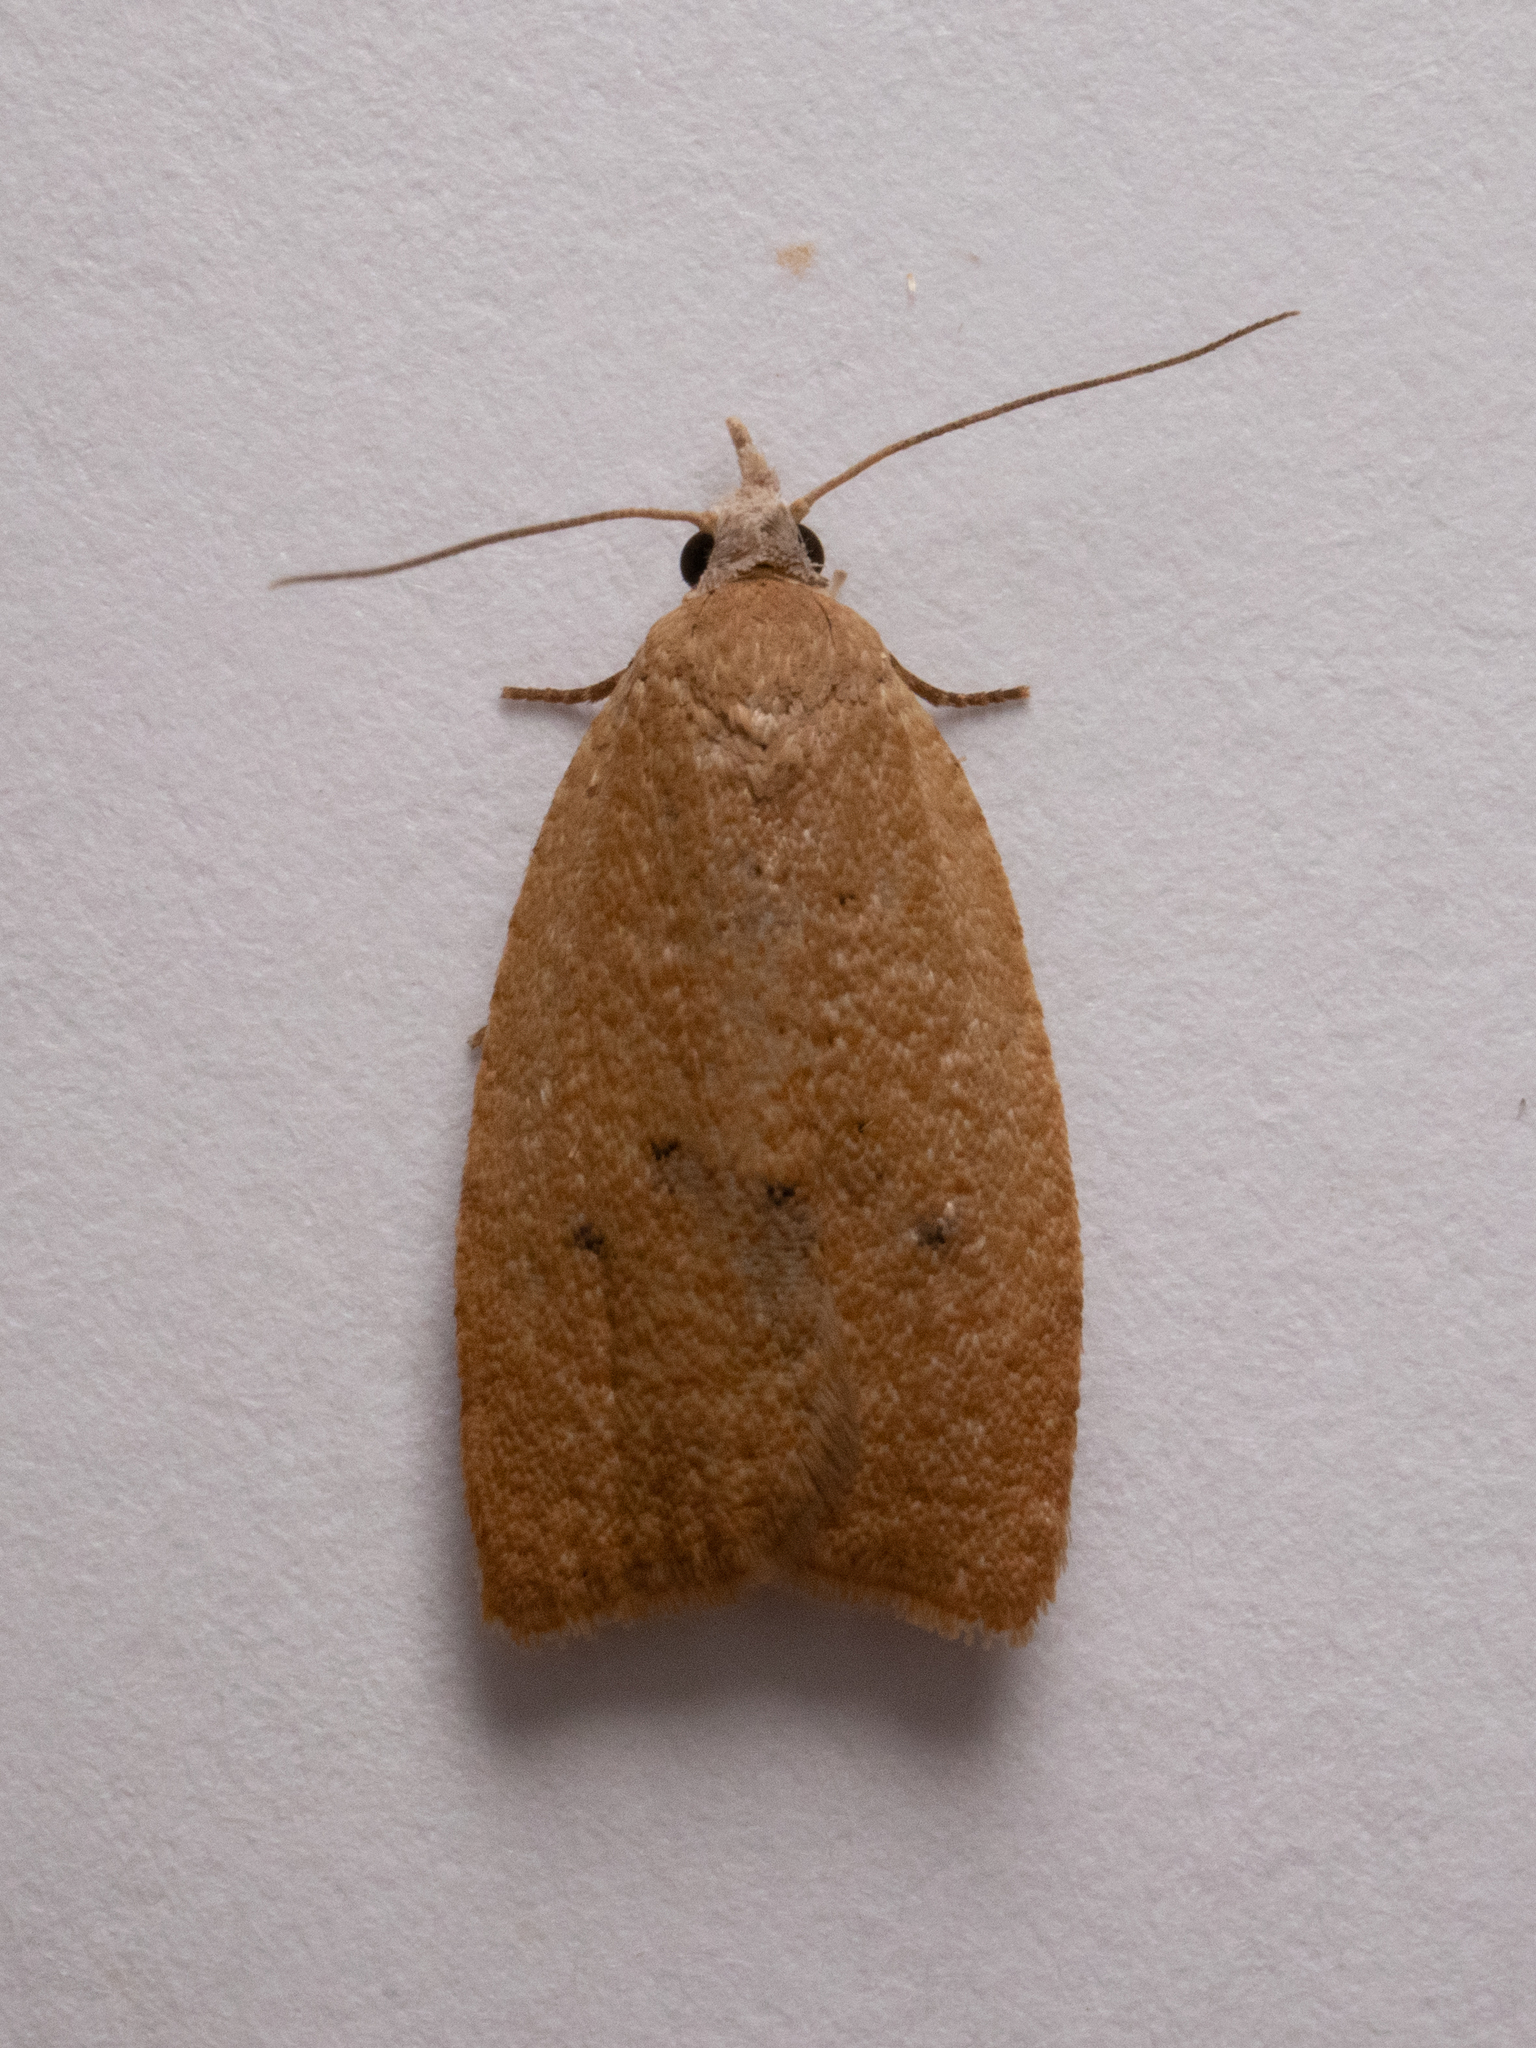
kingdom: Animalia
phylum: Arthropoda
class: Insecta
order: Lepidoptera
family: Tortricidae
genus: Sparganothoides
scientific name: Sparganothoides lentiginosana
